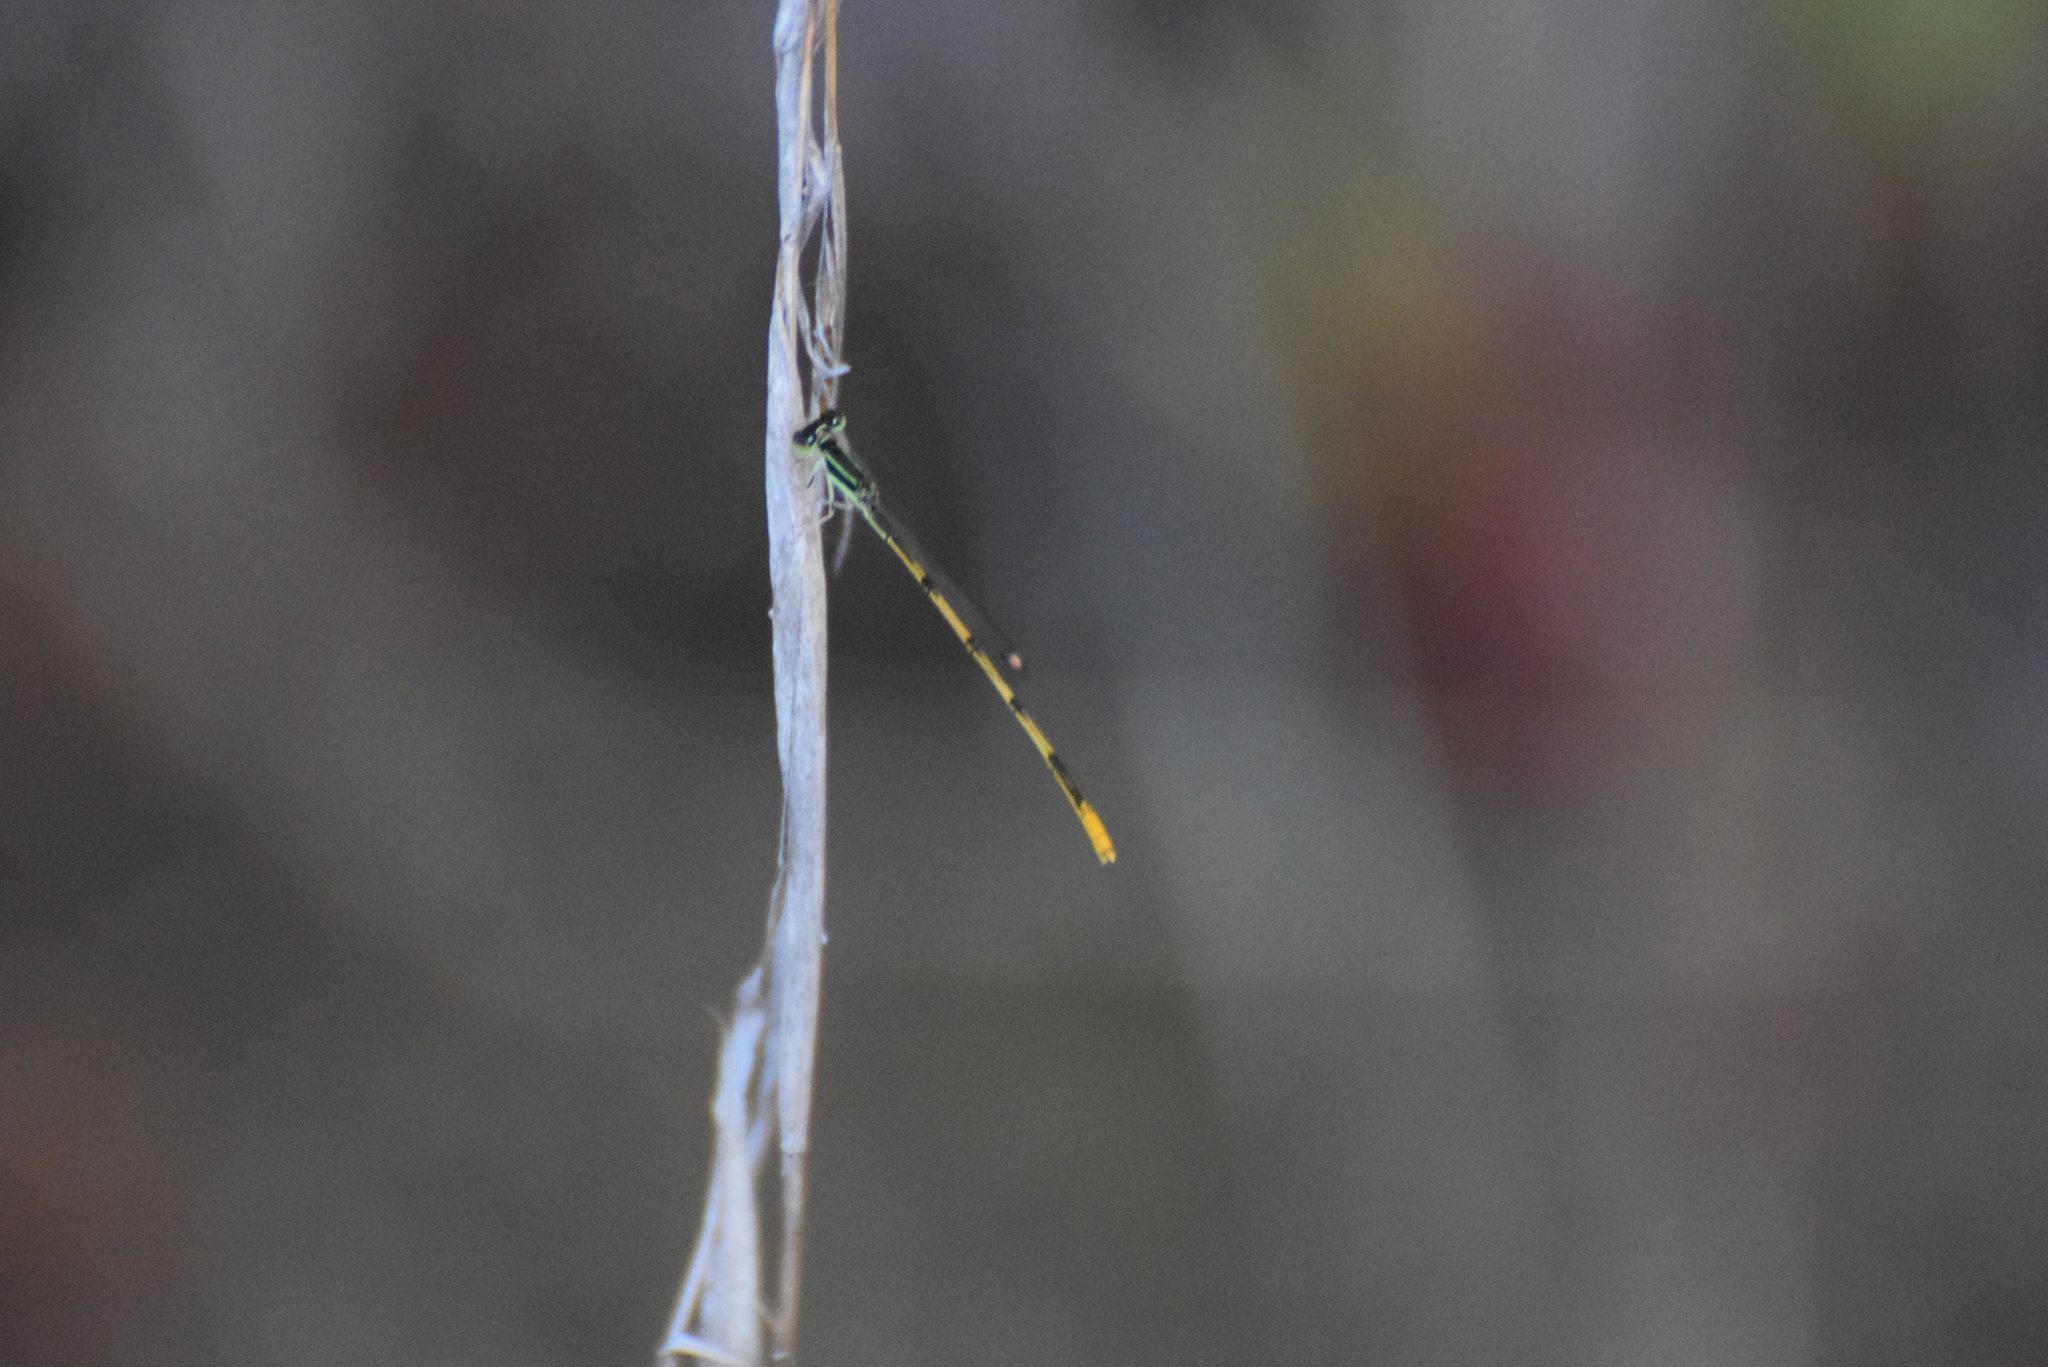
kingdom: Animalia
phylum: Arthropoda
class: Insecta
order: Odonata
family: Coenagrionidae
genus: Ischnura
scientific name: Ischnura hastata
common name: Citrine forktail
